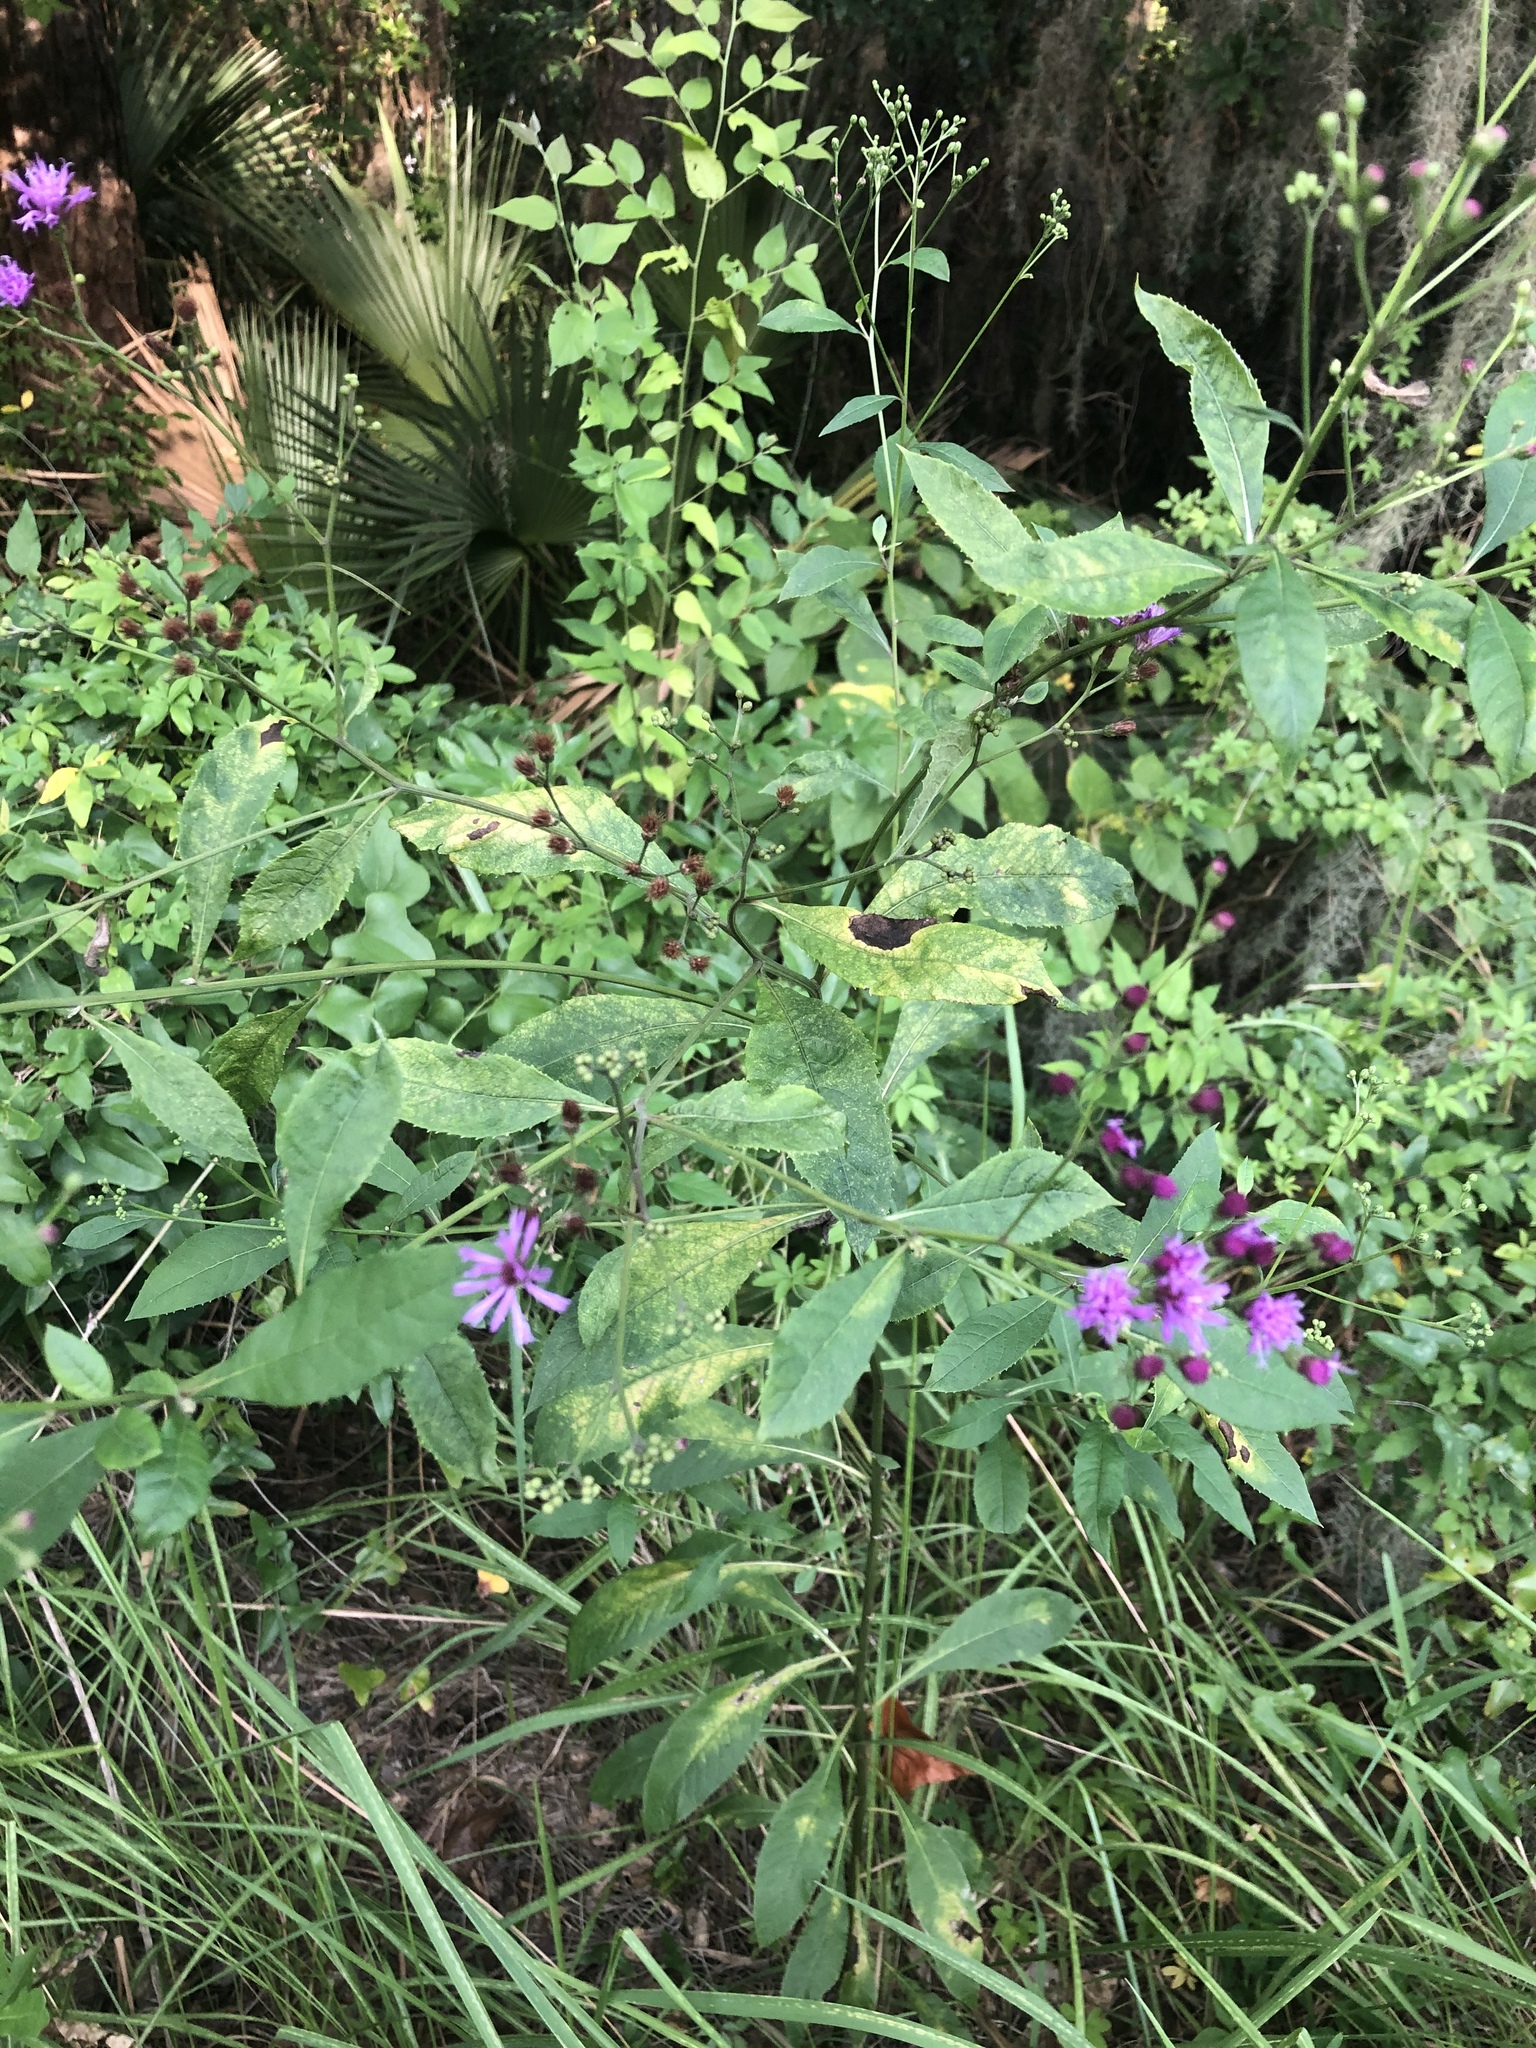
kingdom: Plantae
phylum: Tracheophyta
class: Magnoliopsida
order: Asterales
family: Asteraceae
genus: Vernonia
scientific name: Vernonia gigantea
